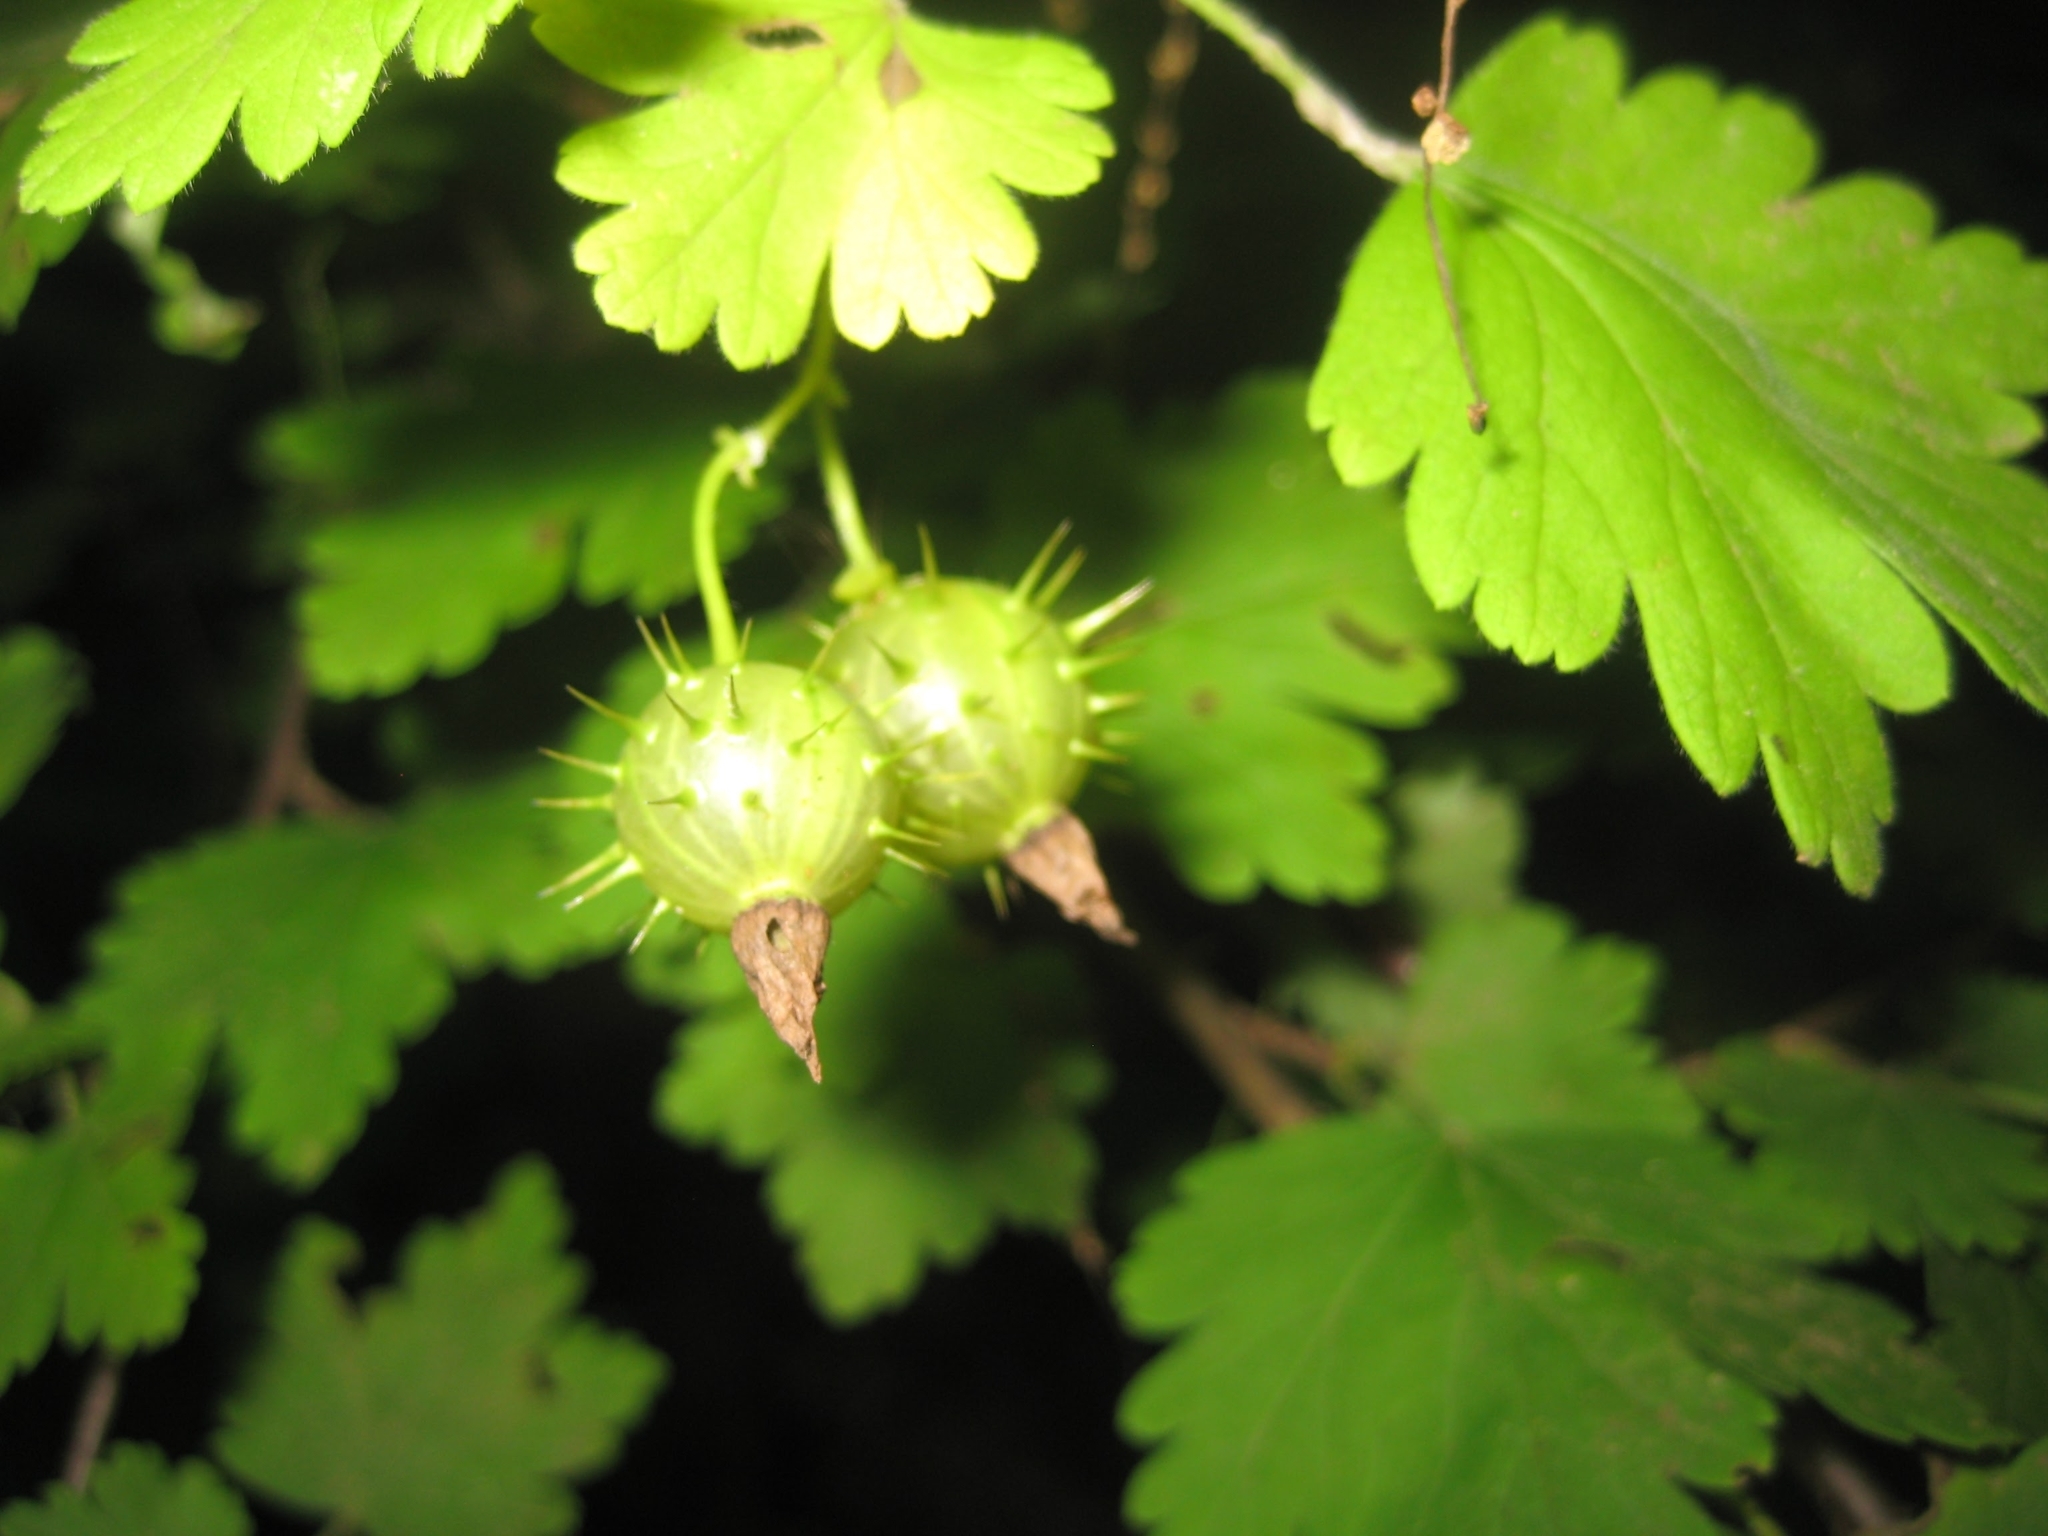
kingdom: Plantae
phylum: Tracheophyta
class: Magnoliopsida
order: Saxifragales
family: Grossulariaceae
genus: Ribes
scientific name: Ribes cynosbati
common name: American gooseberry
